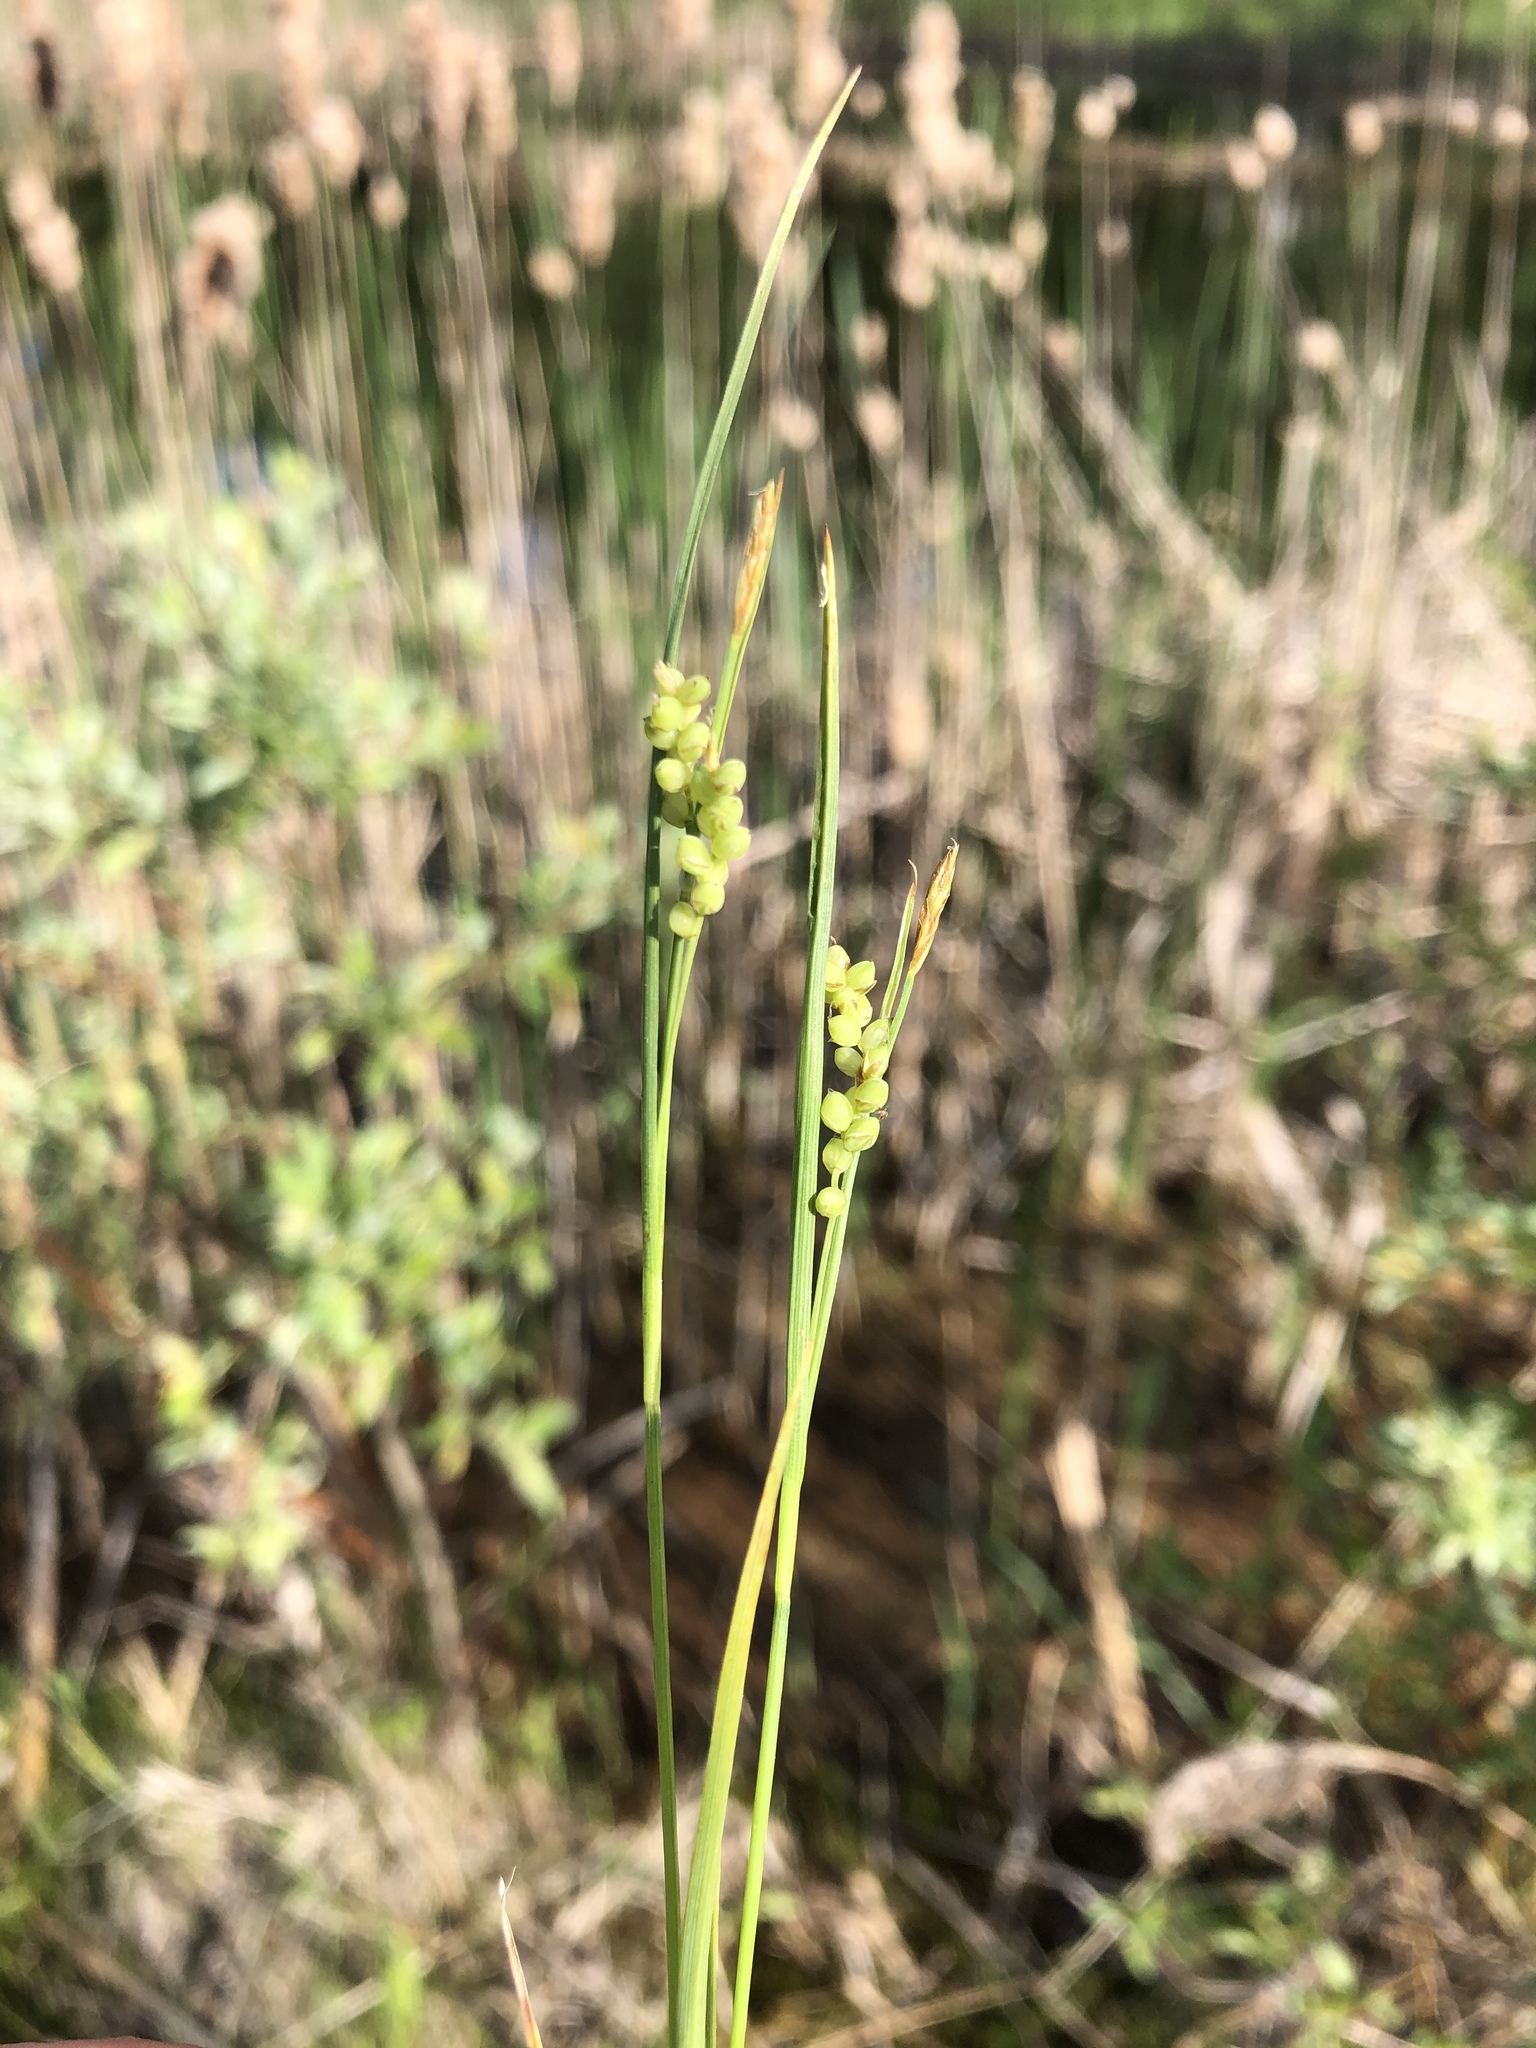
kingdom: Plantae
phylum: Tracheophyta
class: Liliopsida
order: Poales
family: Cyperaceae
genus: Carex
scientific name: Carex aurea
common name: Golden sedge
